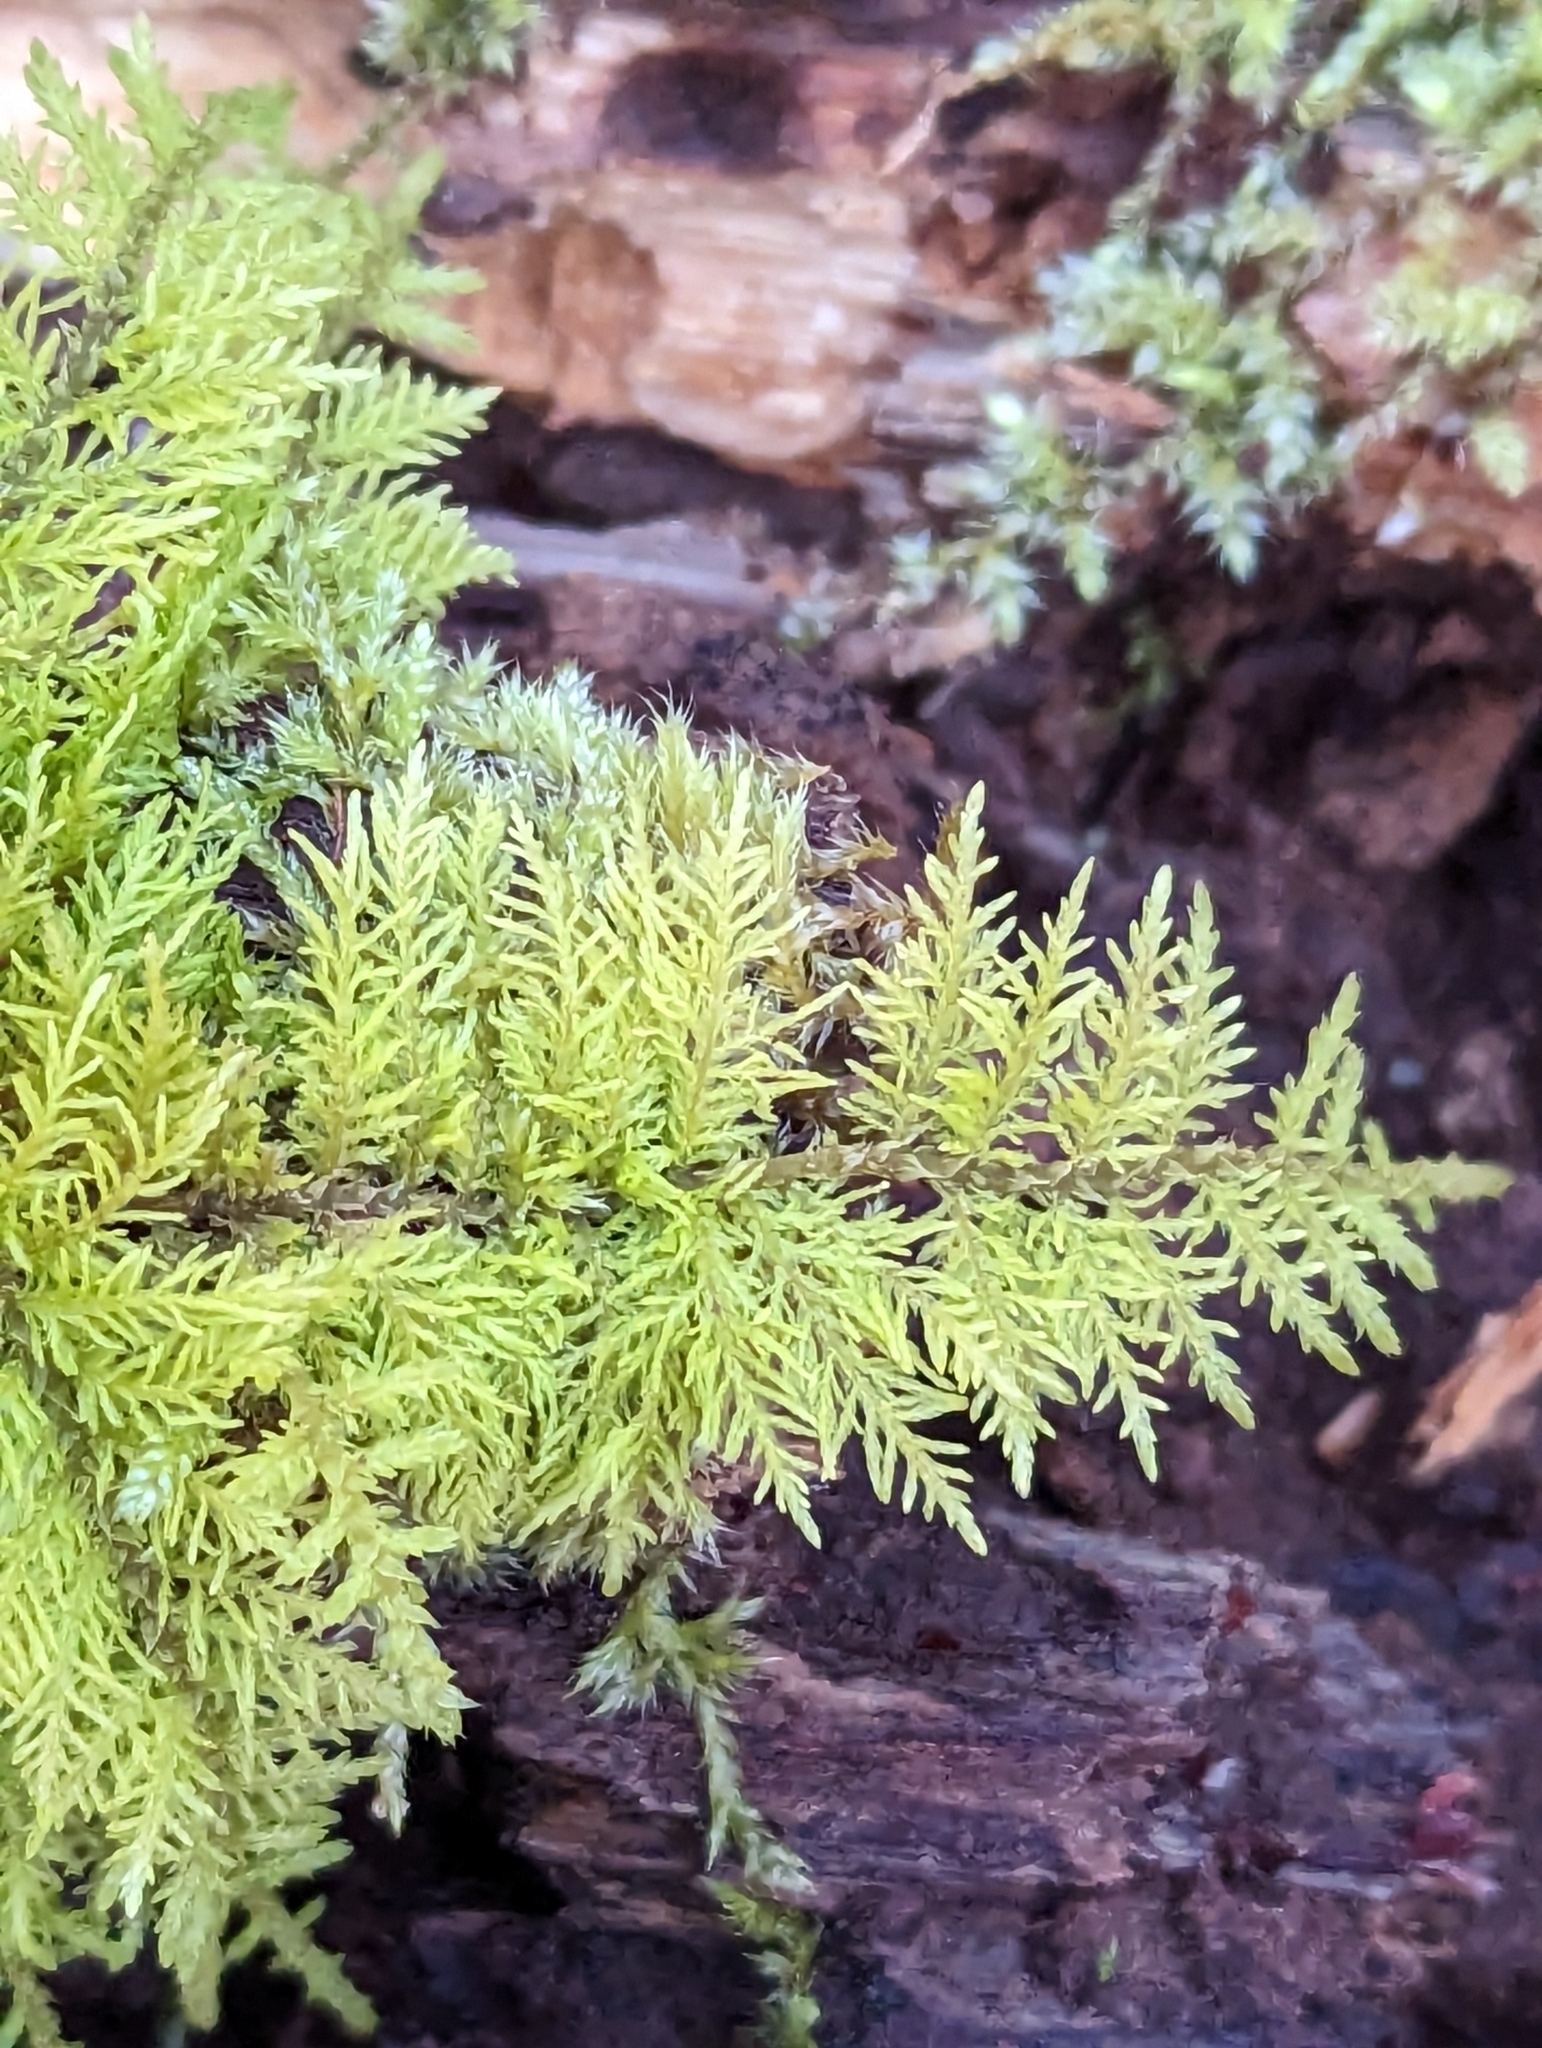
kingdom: Plantae
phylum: Bryophyta
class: Bryopsida
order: Hypnales
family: Thuidiaceae
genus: Thuidium
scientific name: Thuidium tamariscinum
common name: Common tamarisk-moss
